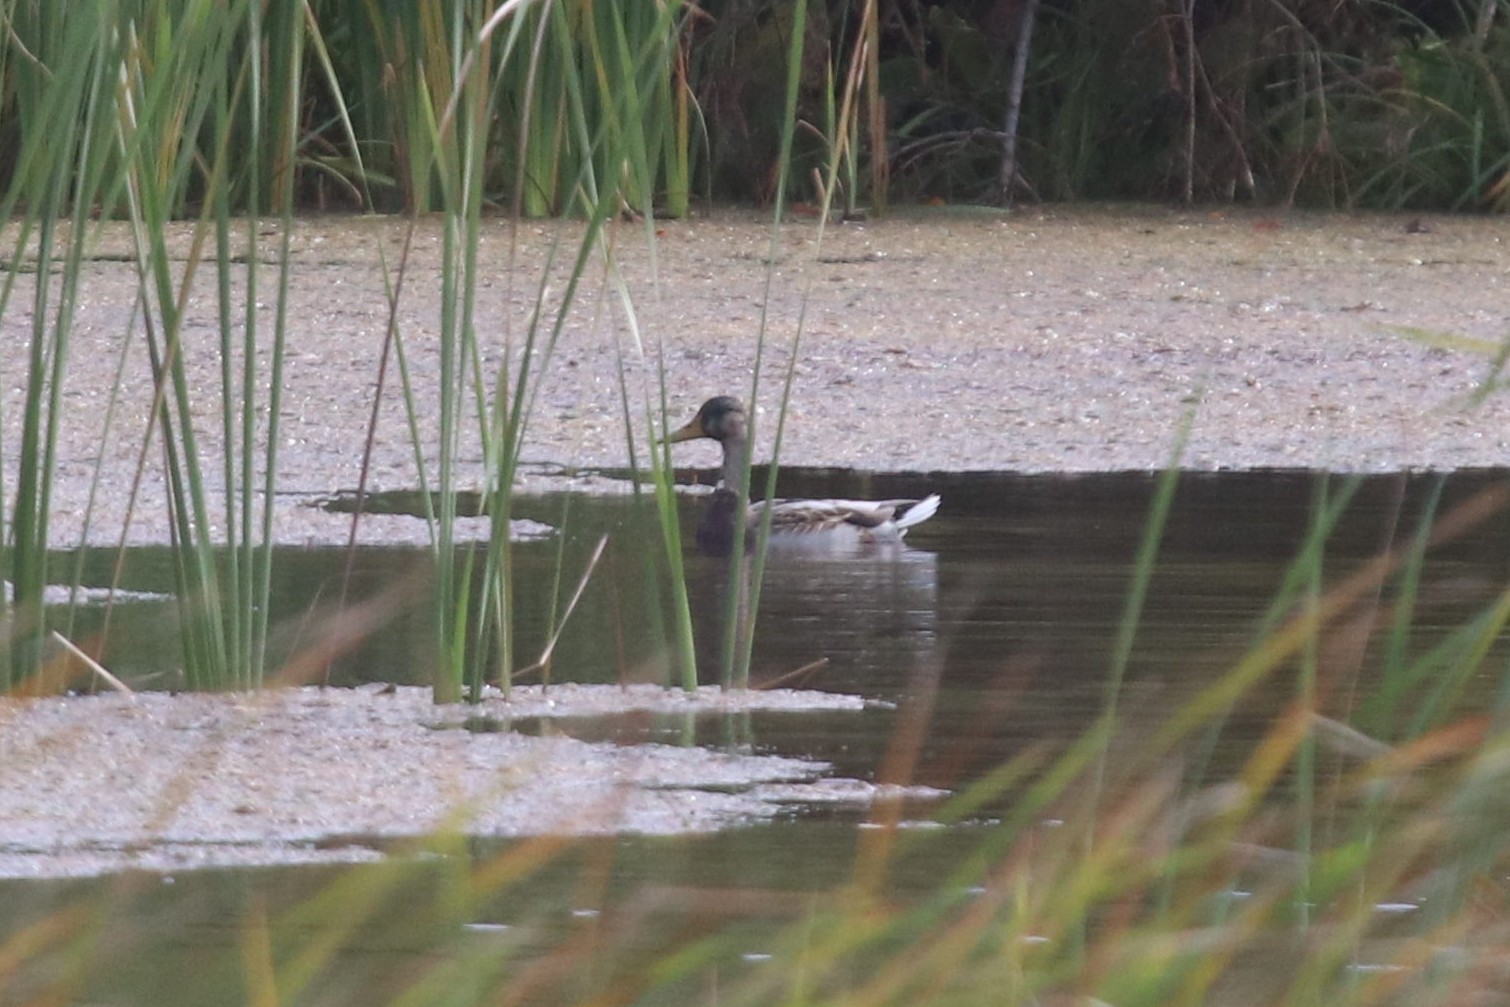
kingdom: Animalia
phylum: Chordata
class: Aves
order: Anseriformes
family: Anatidae
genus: Anas
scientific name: Anas platyrhynchos
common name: Mallard
